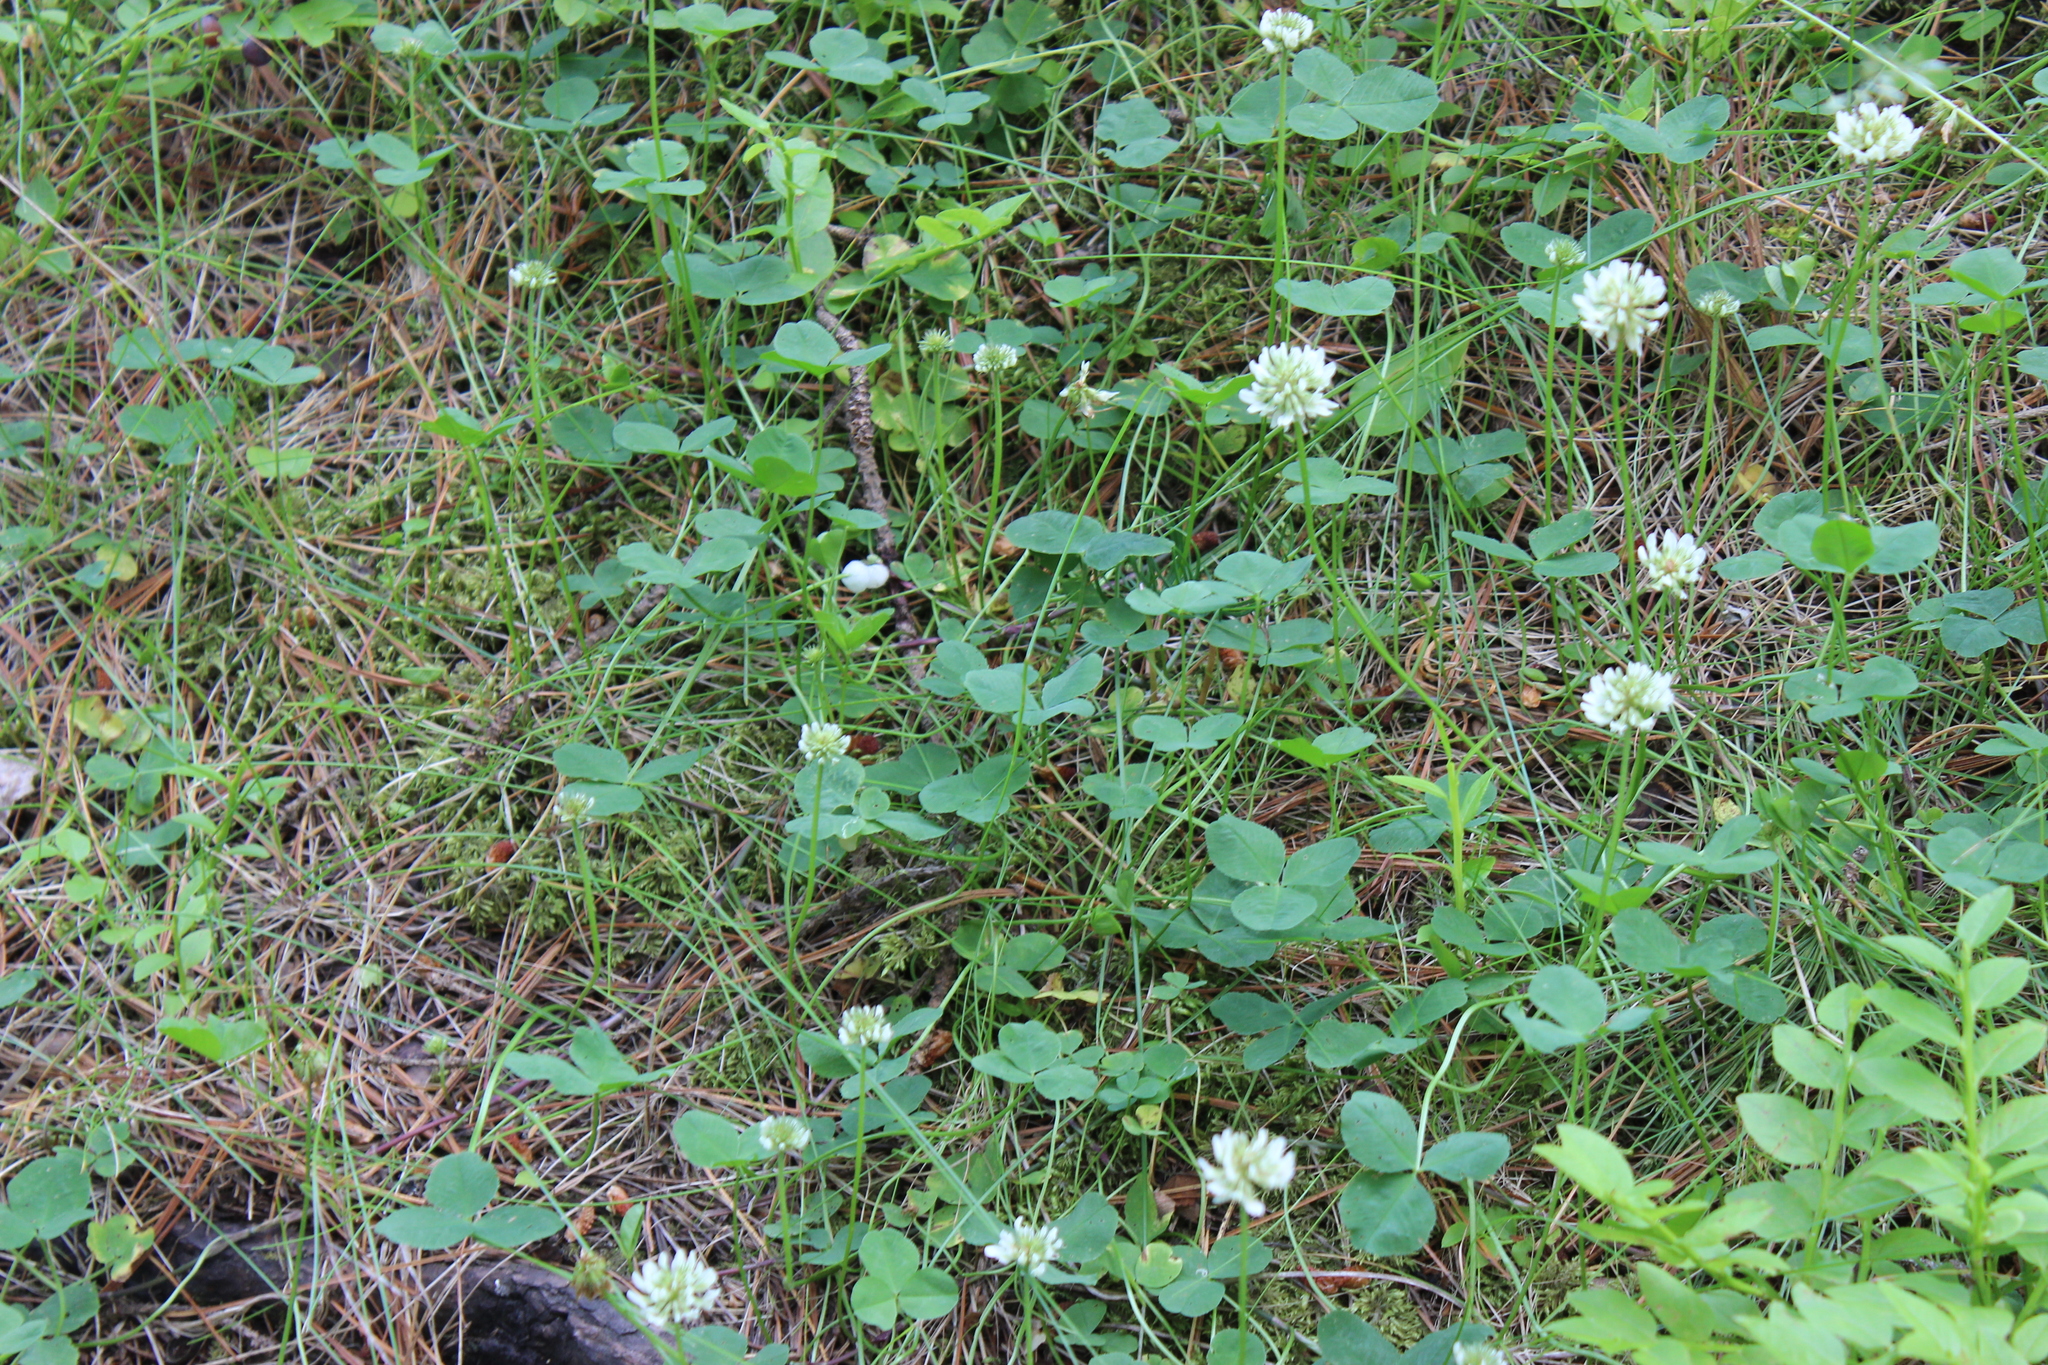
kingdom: Plantae
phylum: Tracheophyta
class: Magnoliopsida
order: Fabales
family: Fabaceae
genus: Trifolium
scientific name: Trifolium repens
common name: White clover
